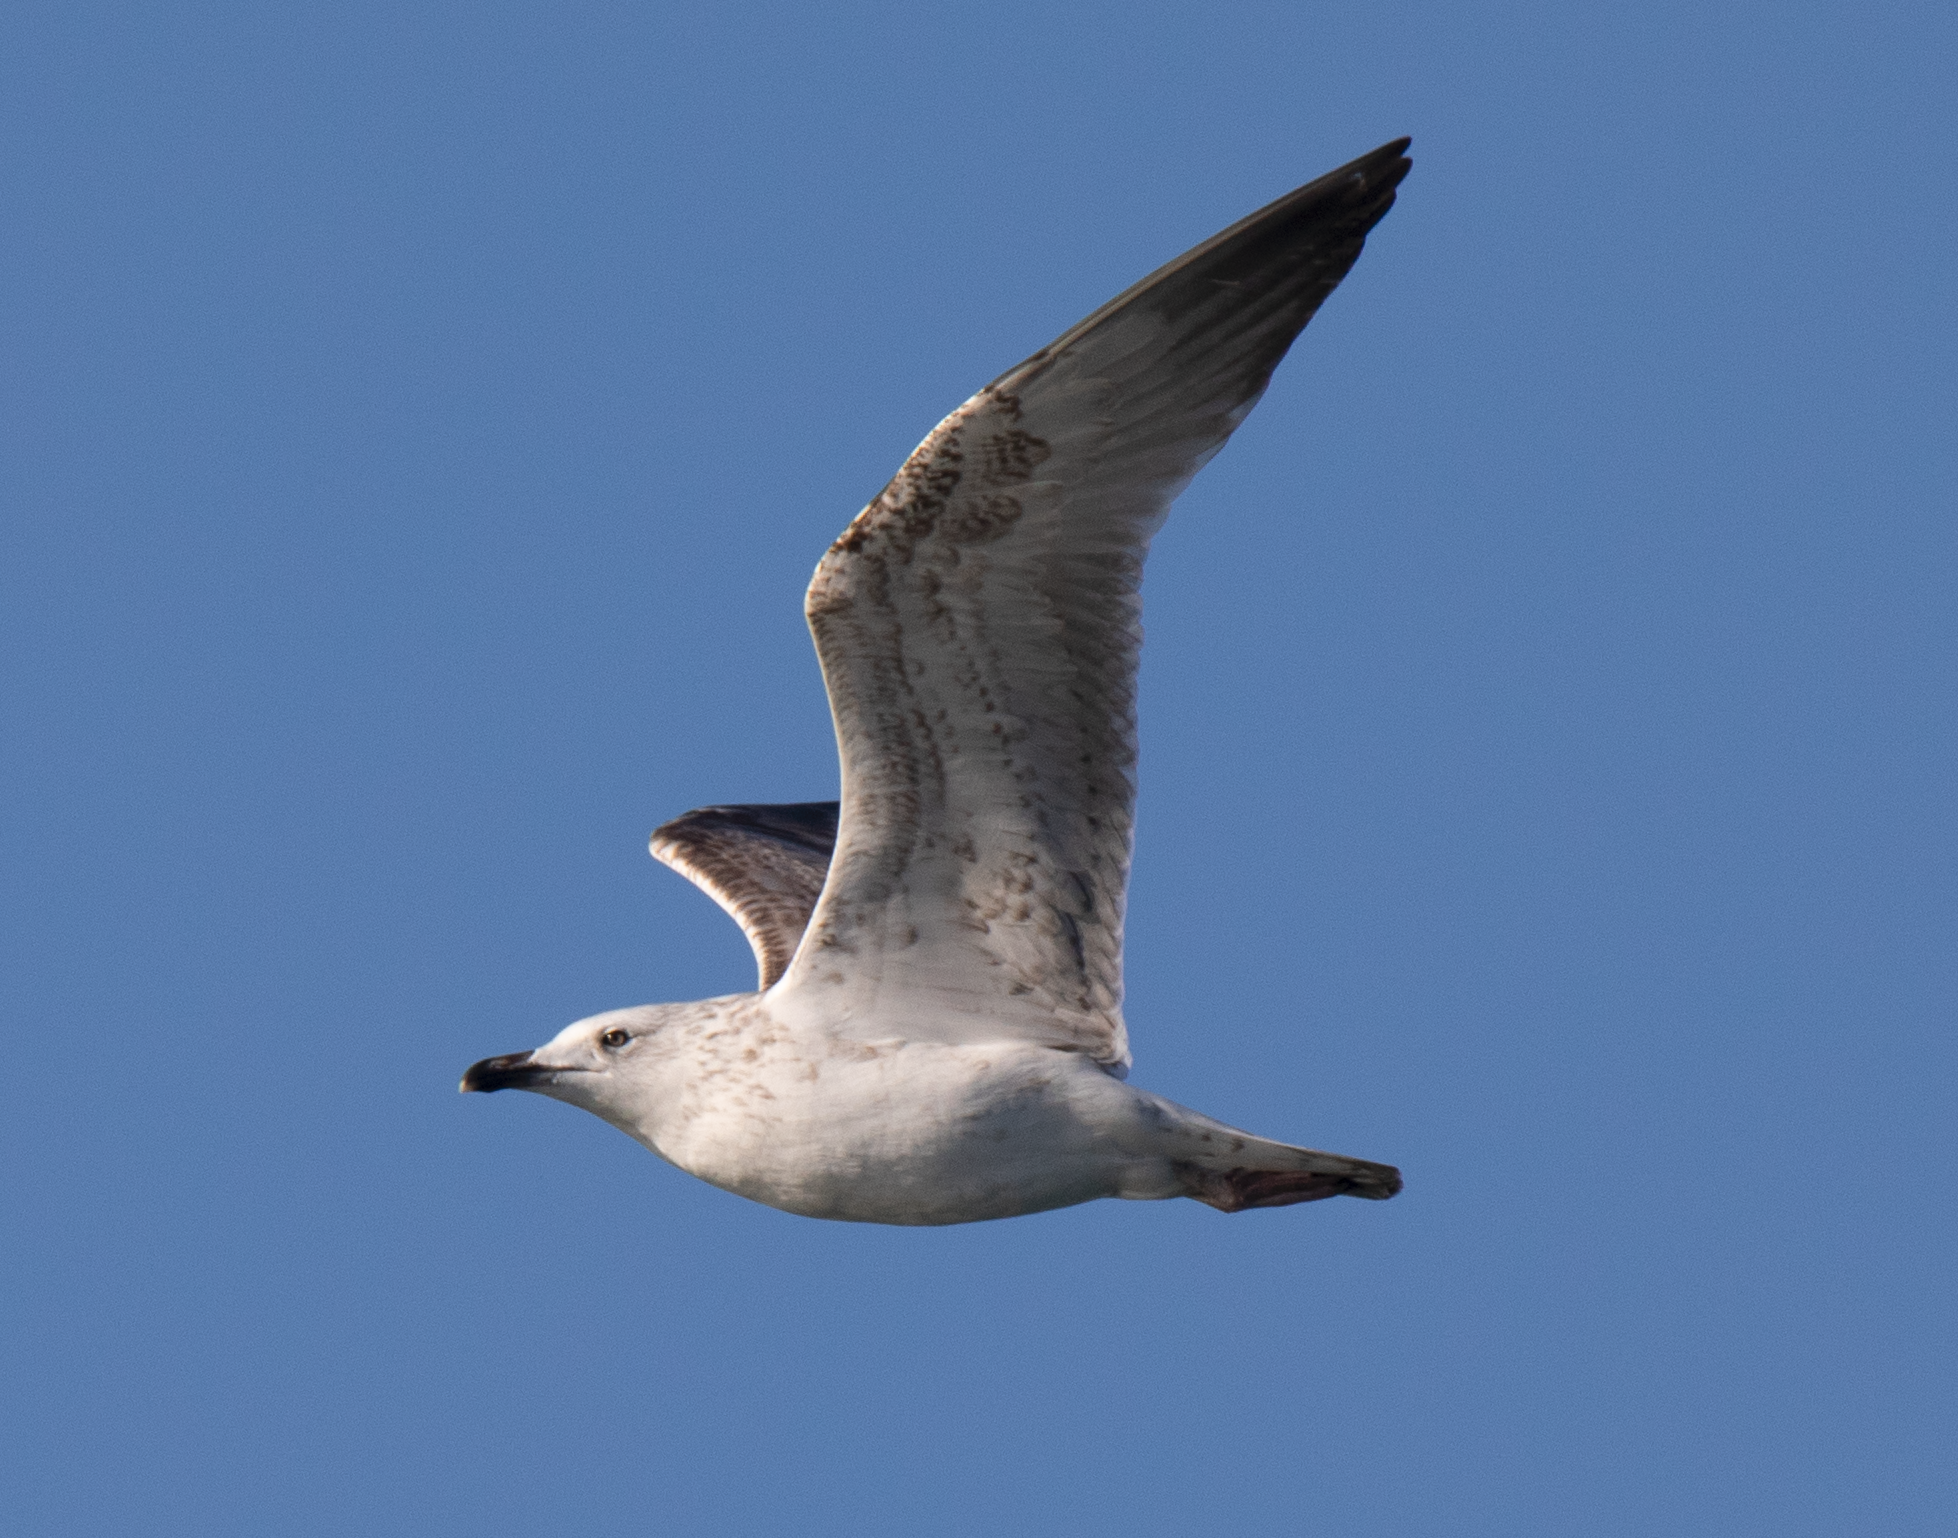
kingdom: Animalia
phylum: Chordata
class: Aves
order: Charadriiformes
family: Laridae
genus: Larus
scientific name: Larus michahellis
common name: Yellow-legged gull
